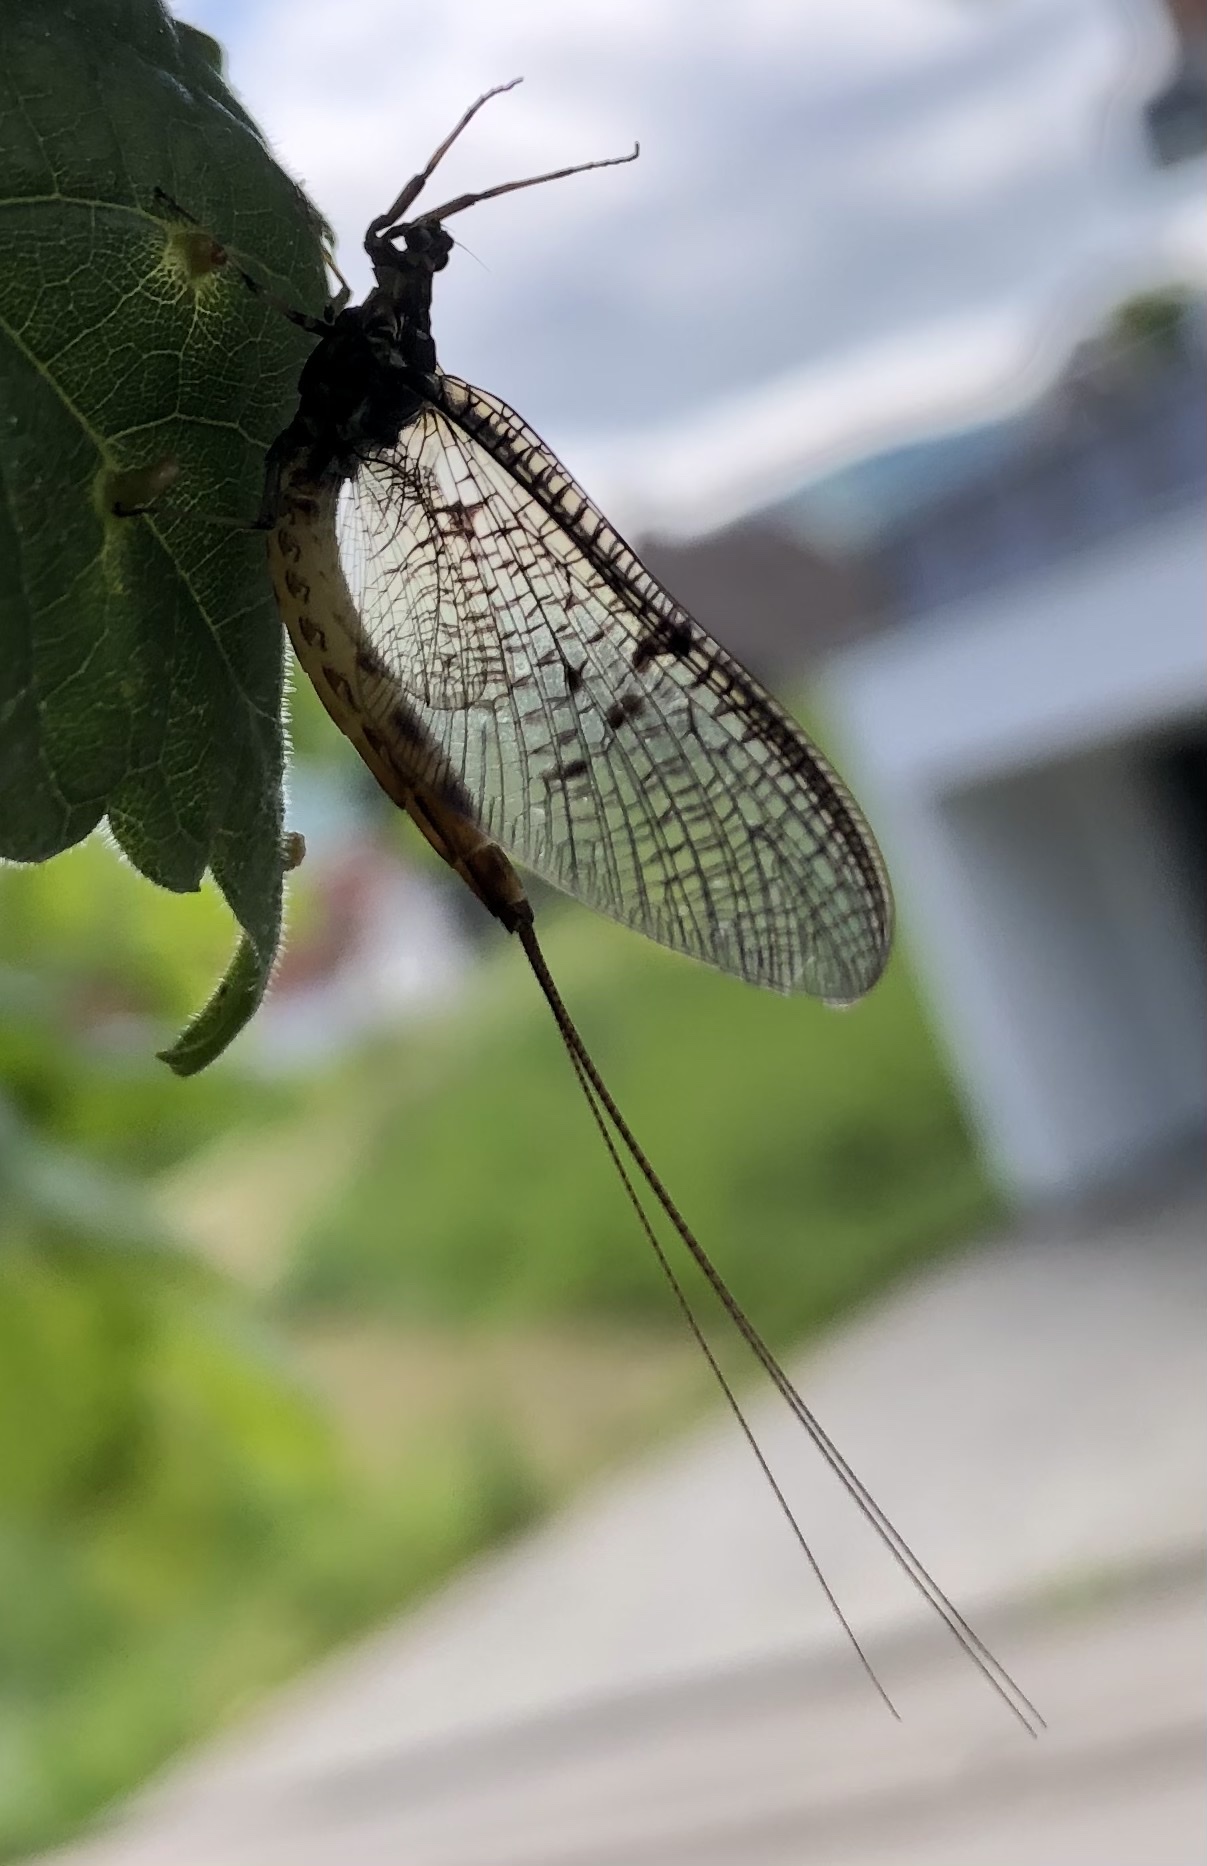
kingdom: Animalia
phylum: Arthropoda
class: Insecta
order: Ephemeroptera
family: Ephemeridae
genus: Ephemera
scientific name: Ephemera danica
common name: Green dun
